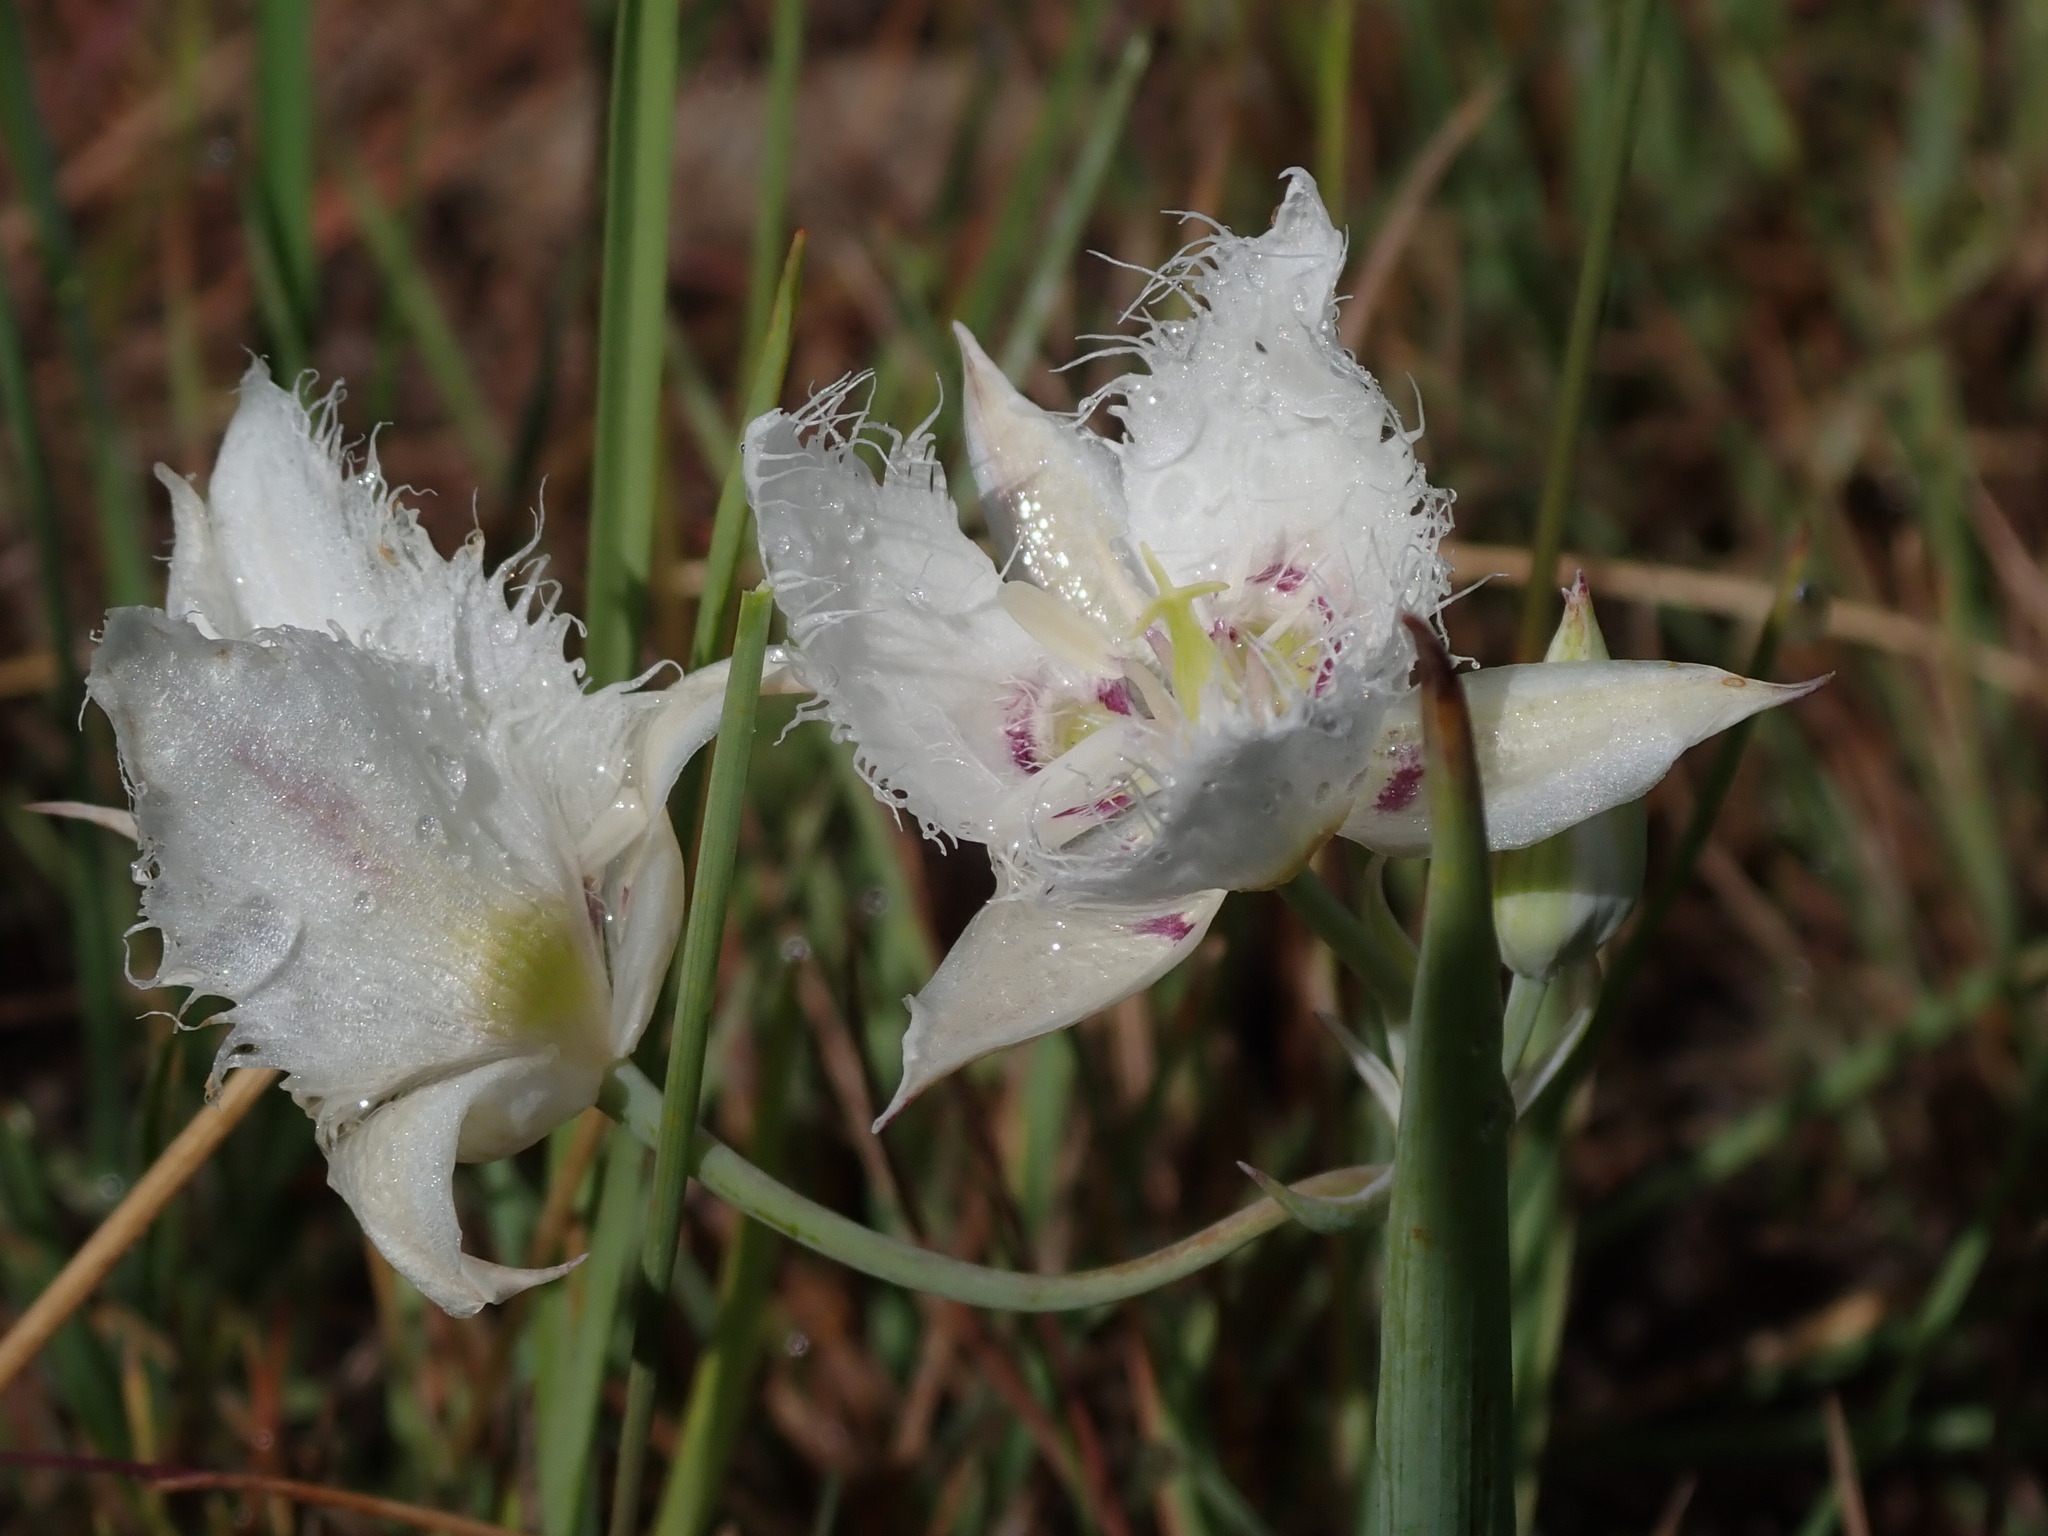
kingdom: Plantae
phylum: Tracheophyta
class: Liliopsida
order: Liliales
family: Liliaceae
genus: Calochortus
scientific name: Calochortus lyallii
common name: Lyall's mariposa lily
